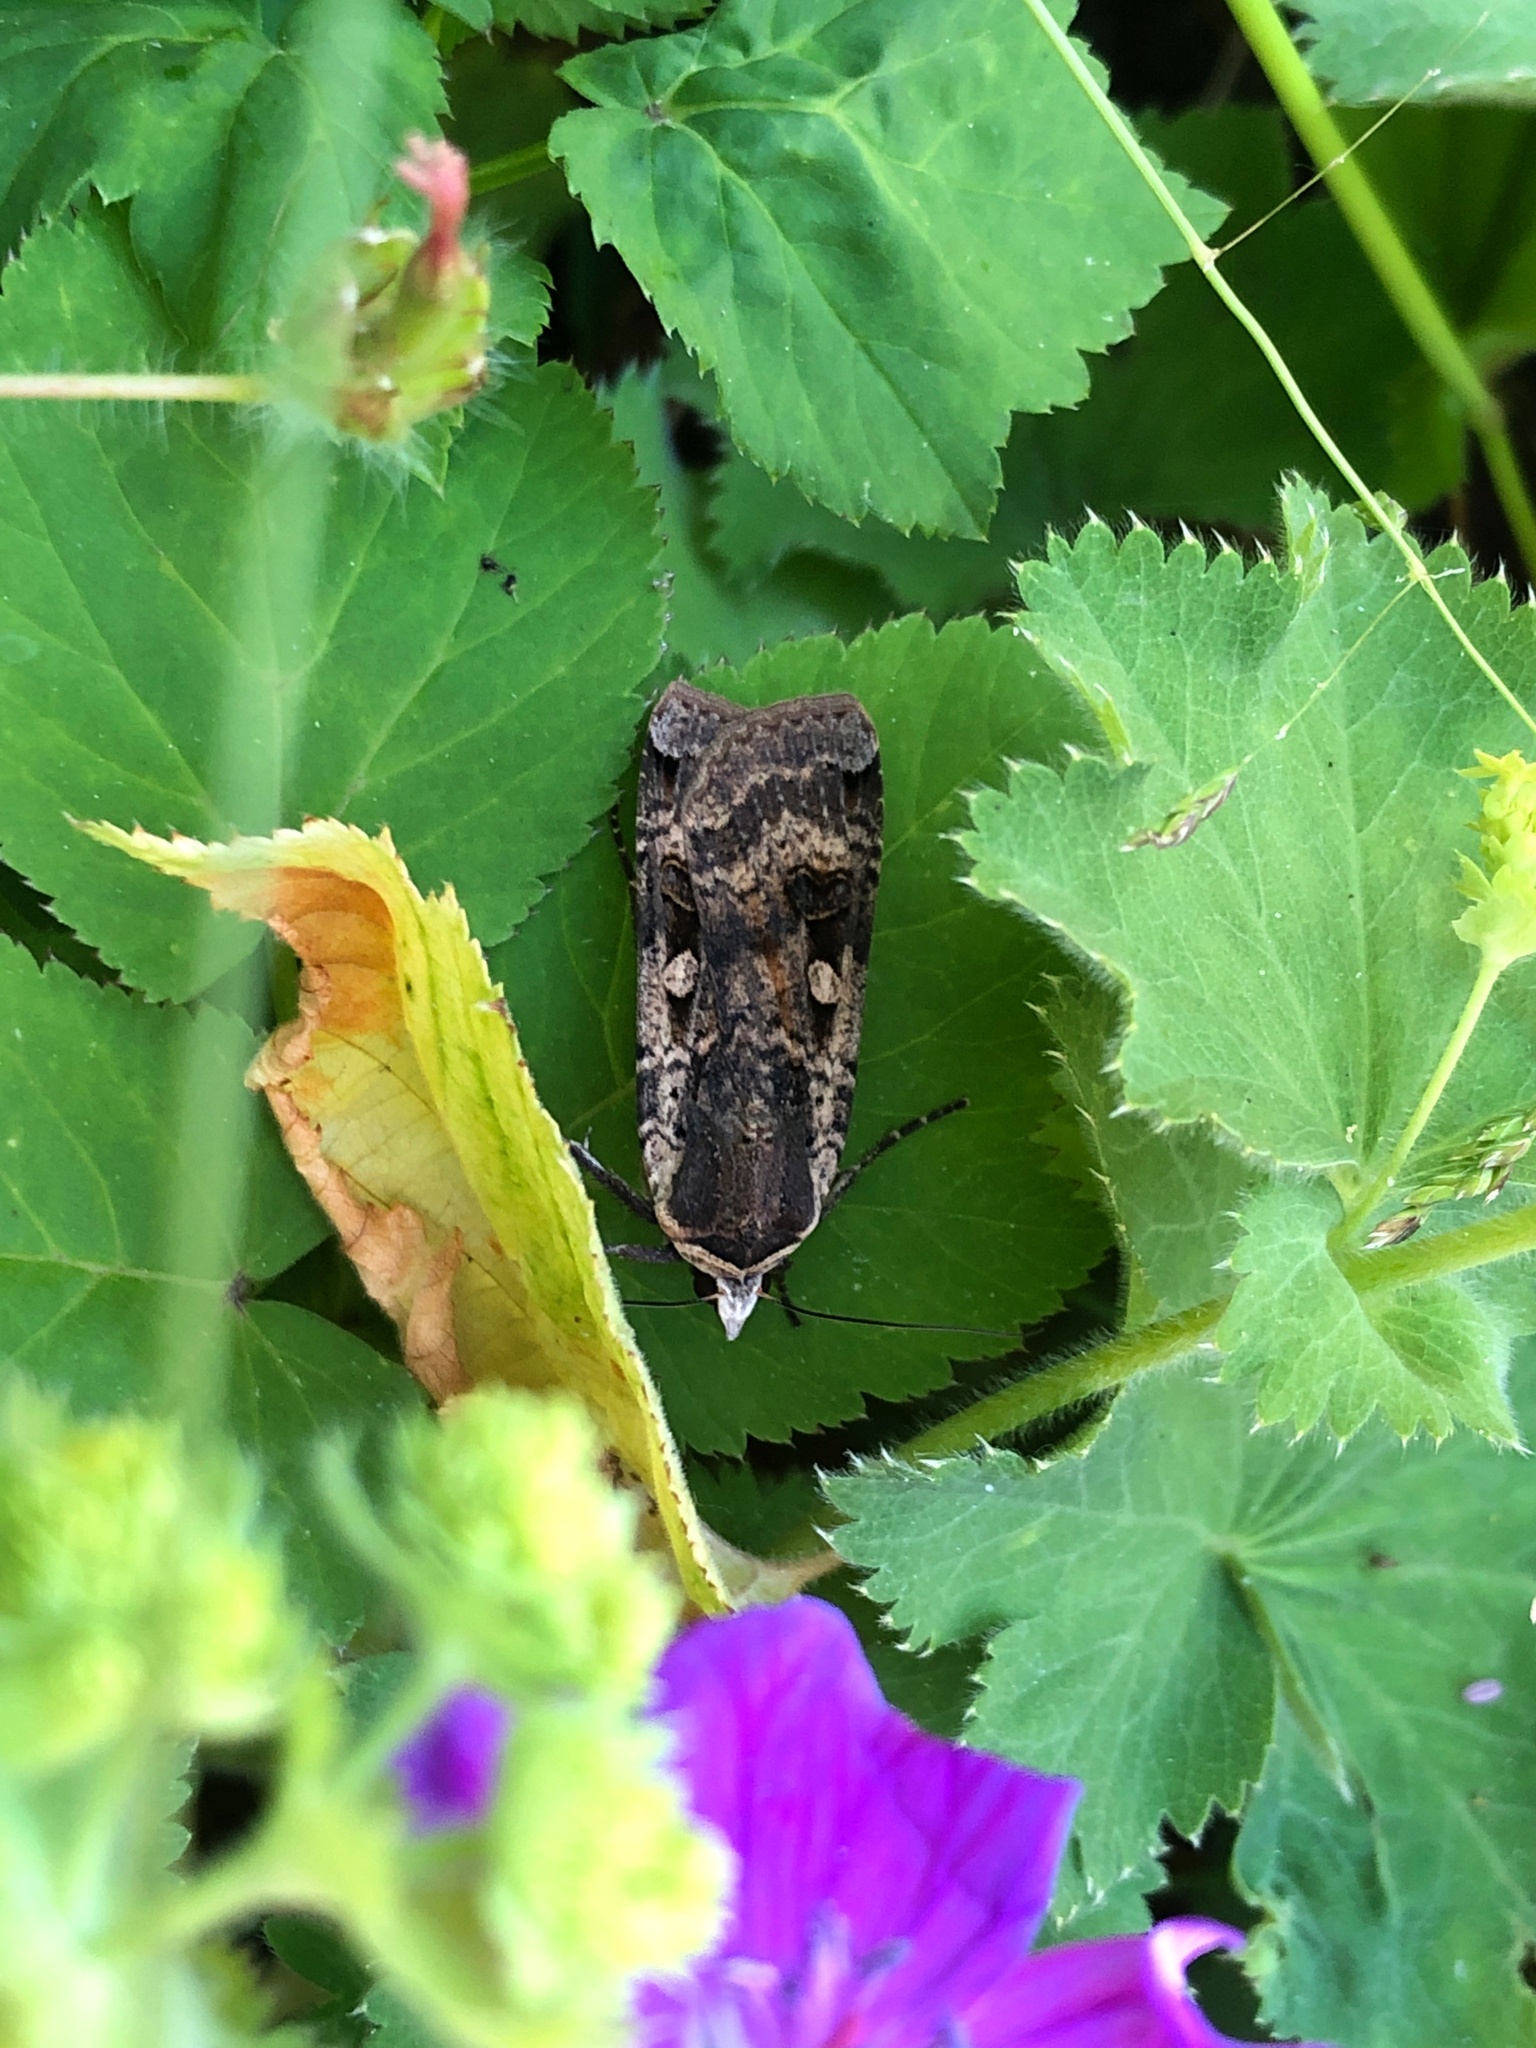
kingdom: Animalia
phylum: Arthropoda
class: Insecta
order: Lepidoptera
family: Noctuidae
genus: Noctua
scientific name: Noctua pronuba
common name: Large yellow underwing
